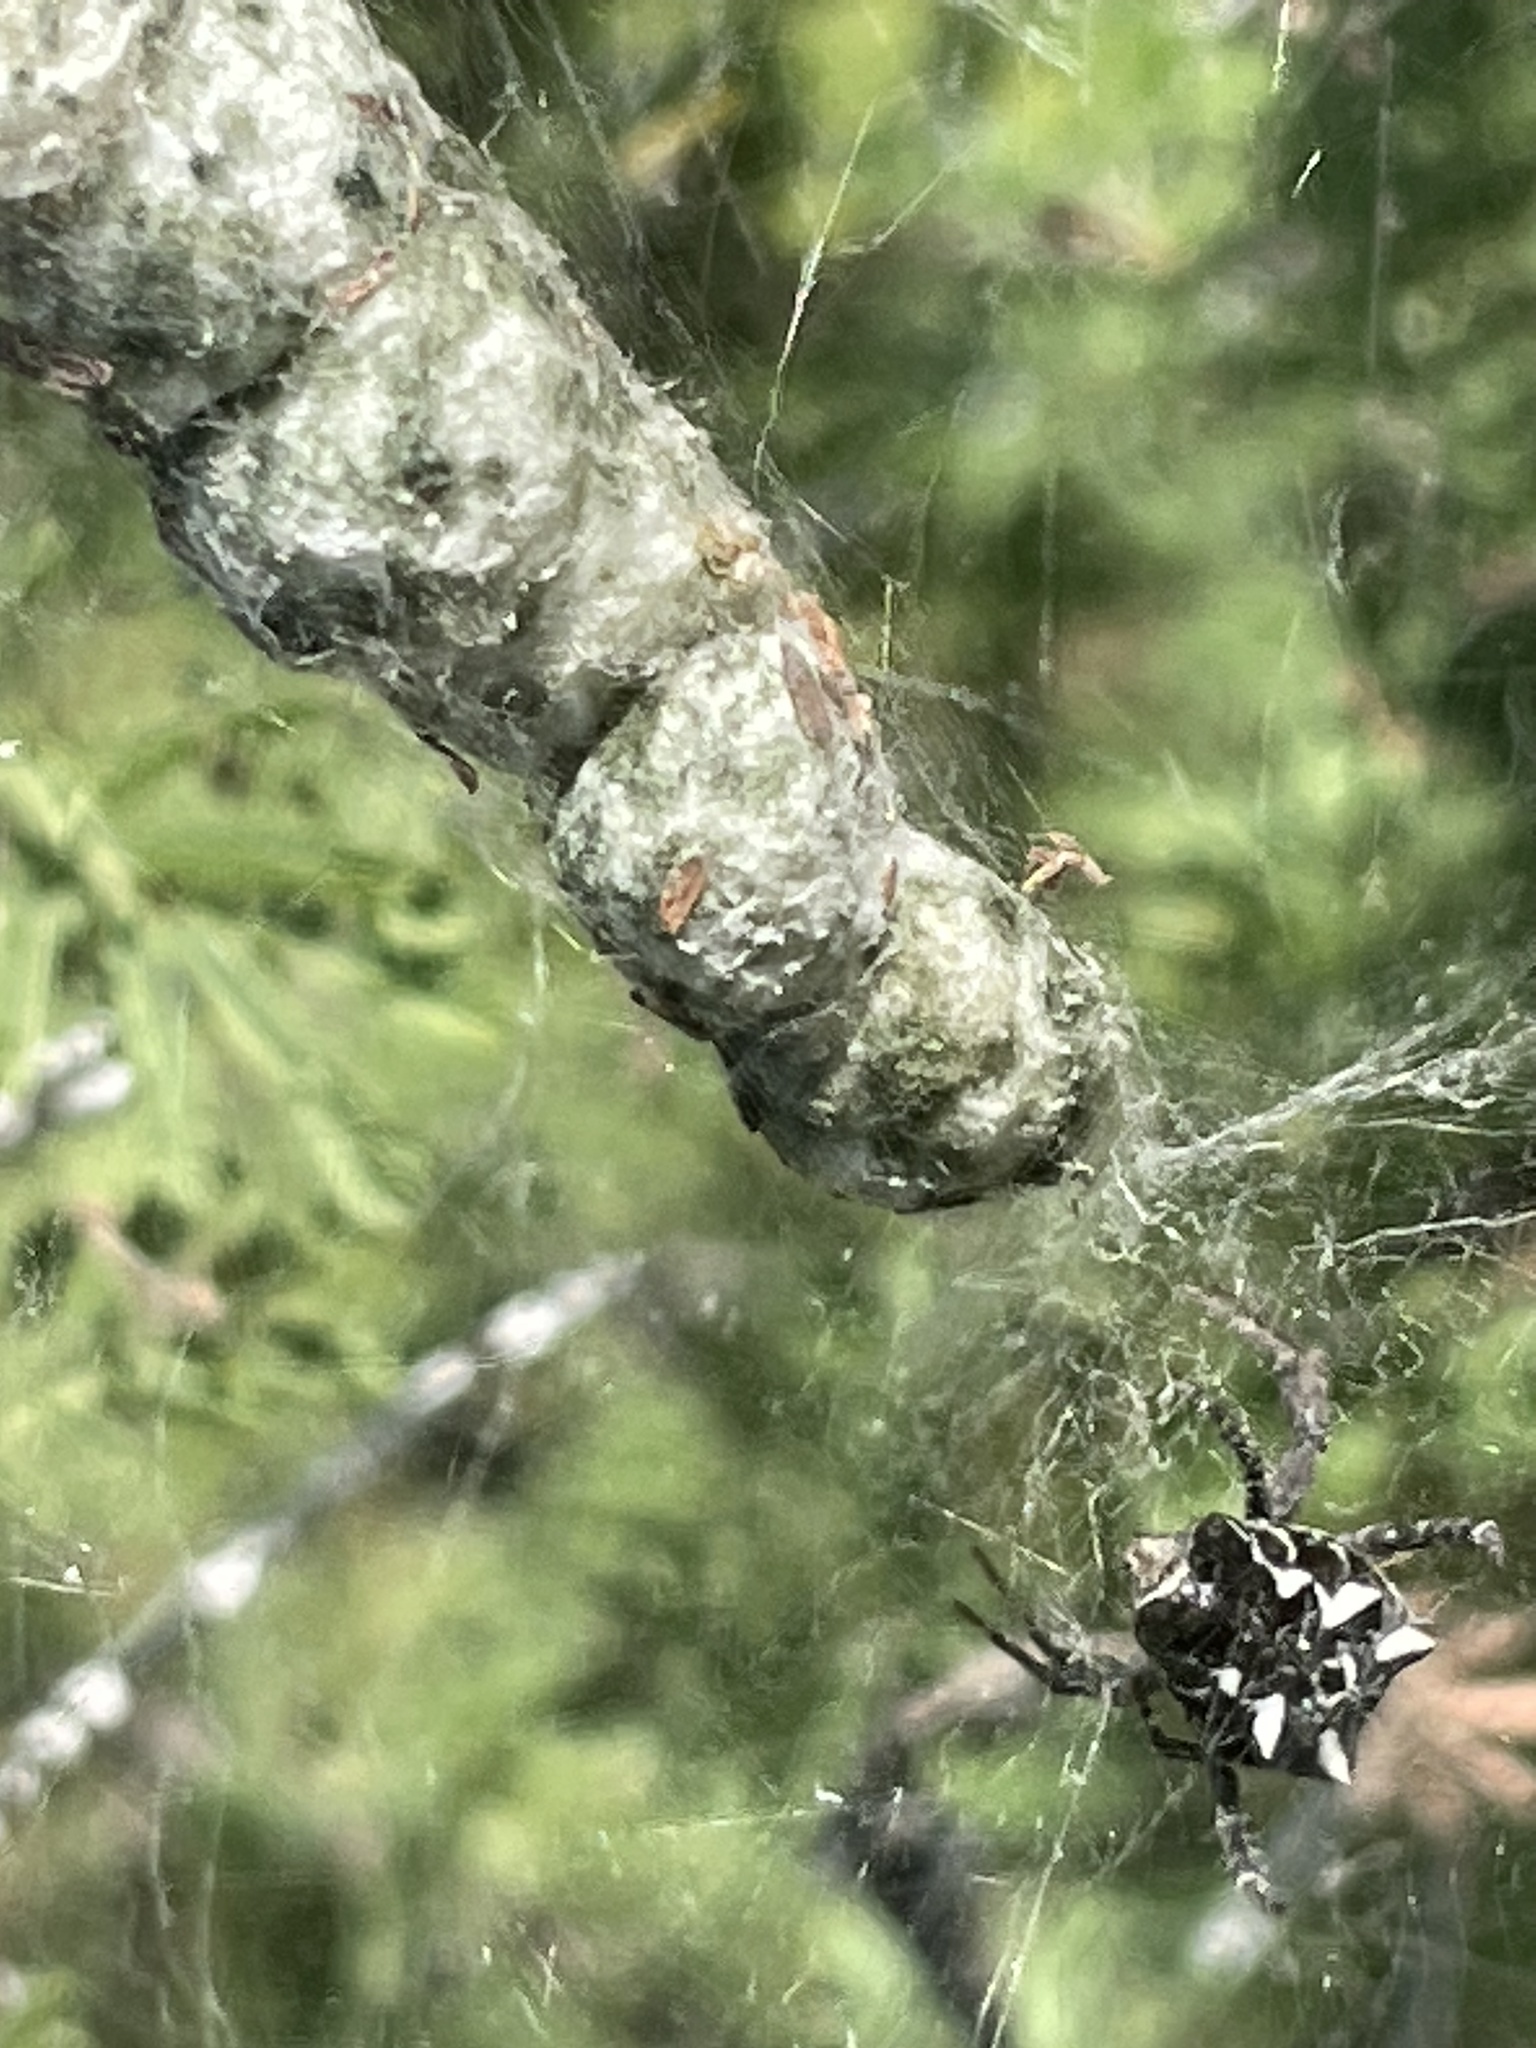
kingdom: Animalia
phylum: Arthropoda
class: Arachnida
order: Araneae
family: Araneidae
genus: Cyrtophora
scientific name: Cyrtophora citricola
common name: Orb weavers
